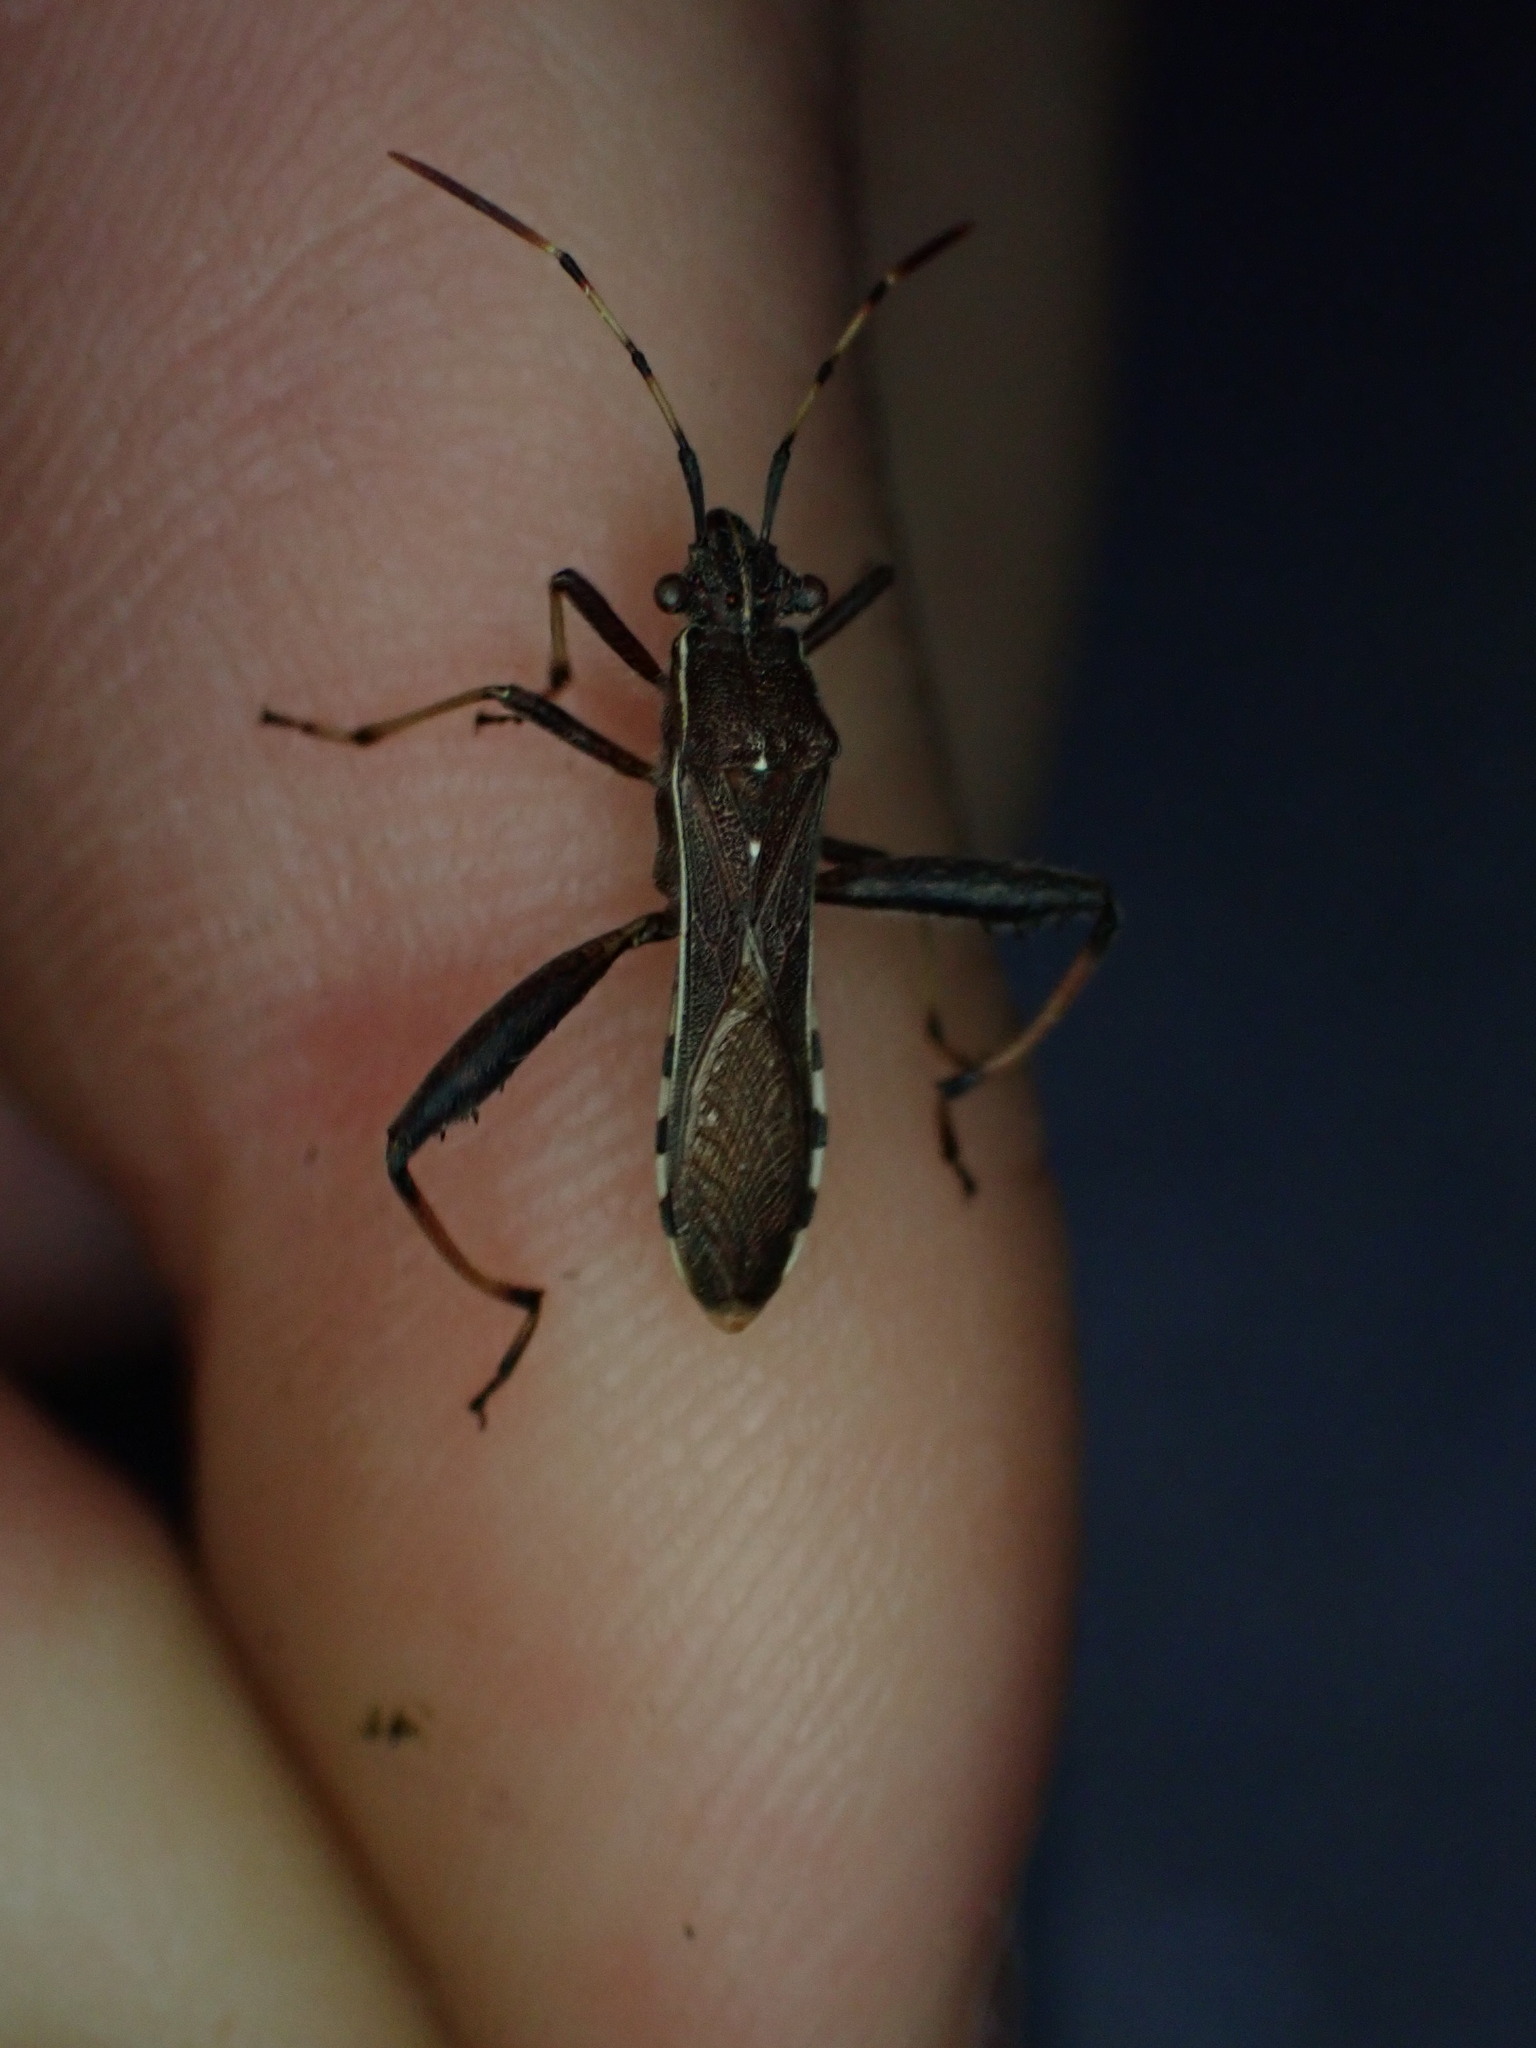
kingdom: Animalia
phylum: Arthropoda
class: Insecta
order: Hemiptera
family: Alydidae
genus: Camptopus
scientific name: Camptopus lateralis
